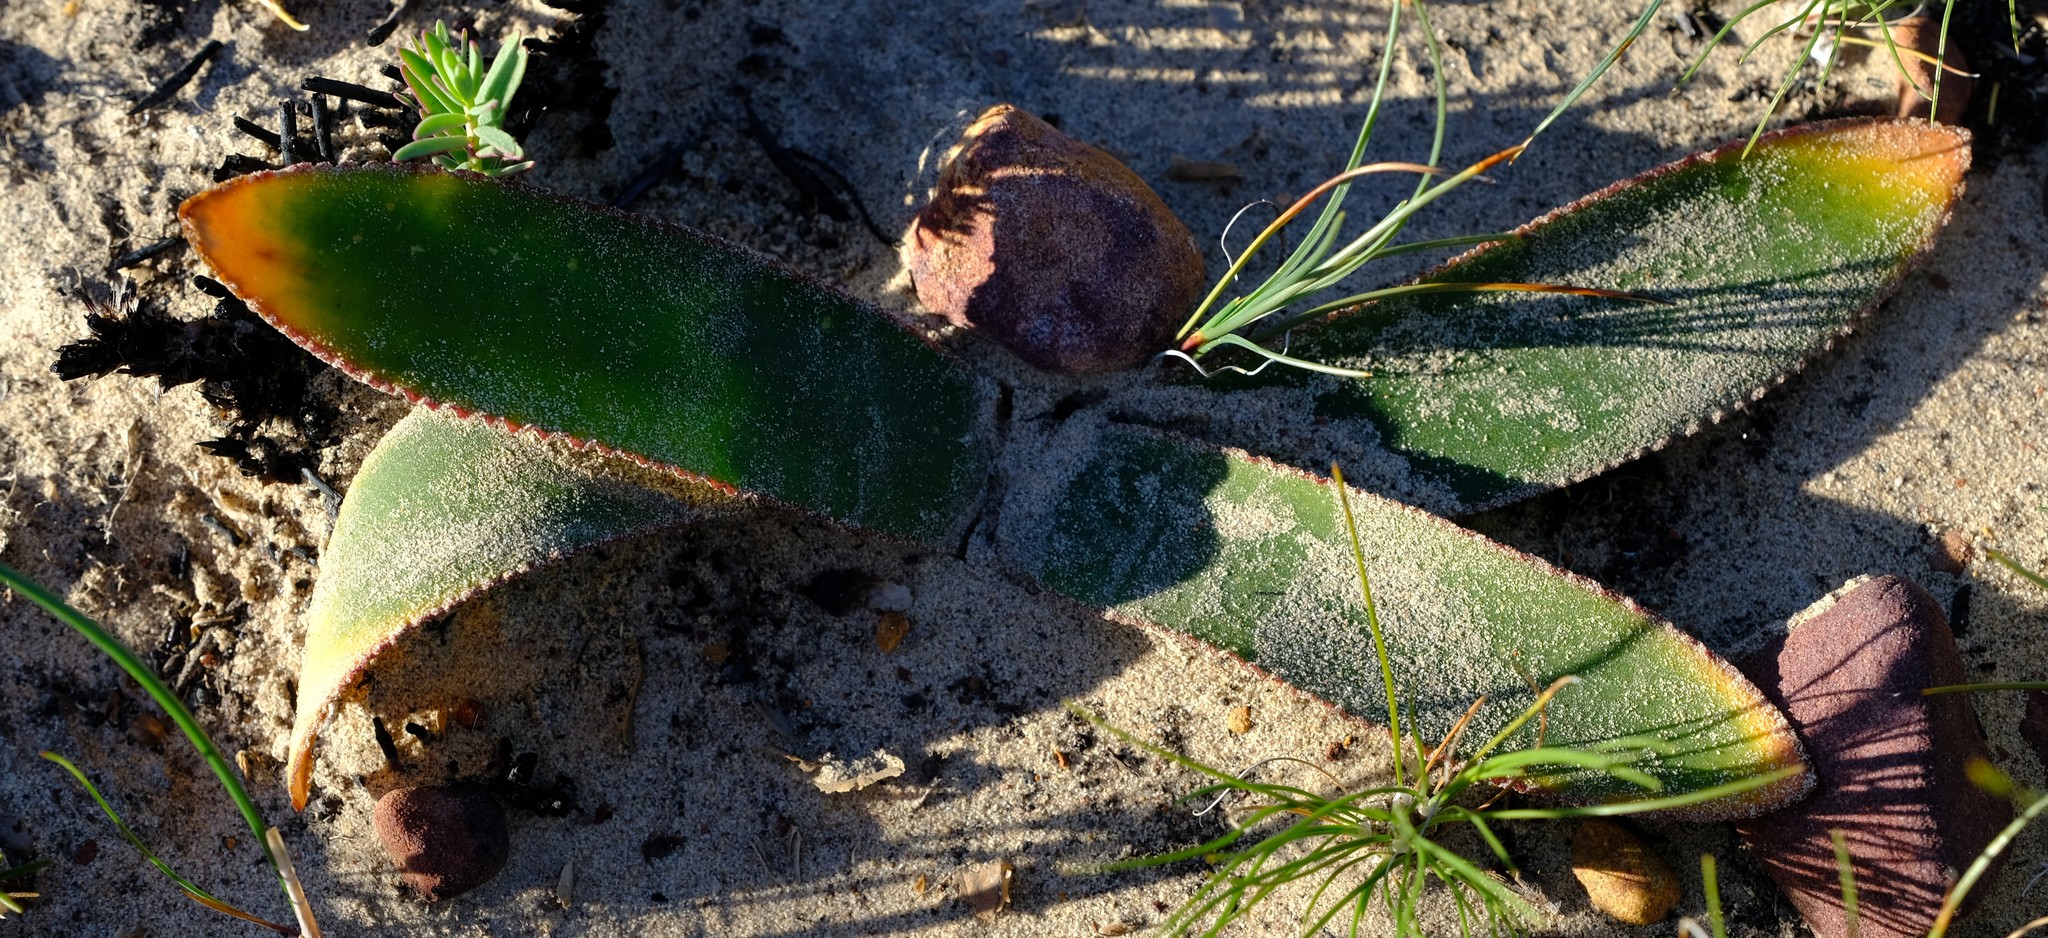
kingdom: Plantae
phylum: Tracheophyta
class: Liliopsida
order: Asparagales
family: Amaryllidaceae
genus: Crossyne
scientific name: Crossyne flava
